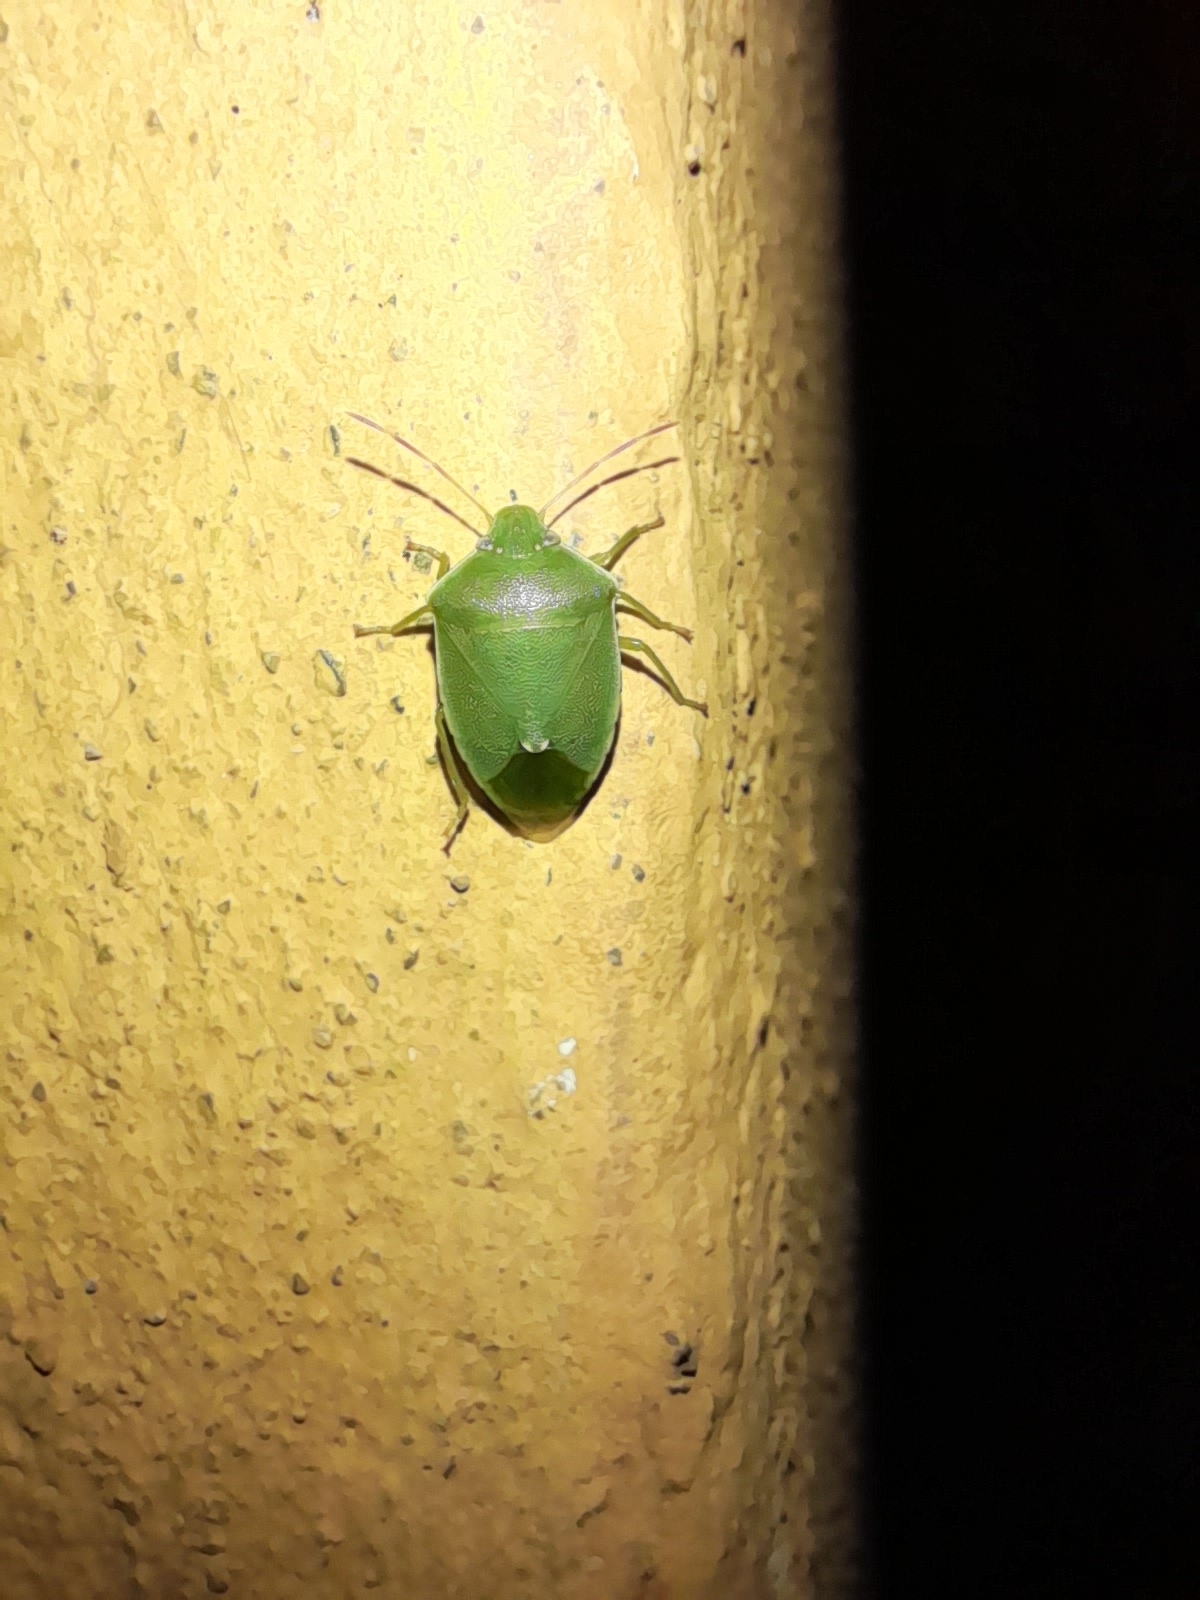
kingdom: Animalia
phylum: Arthropoda
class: Insecta
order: Hemiptera
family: Pentatomidae
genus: Acrosternum
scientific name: Acrosternum heegeri
